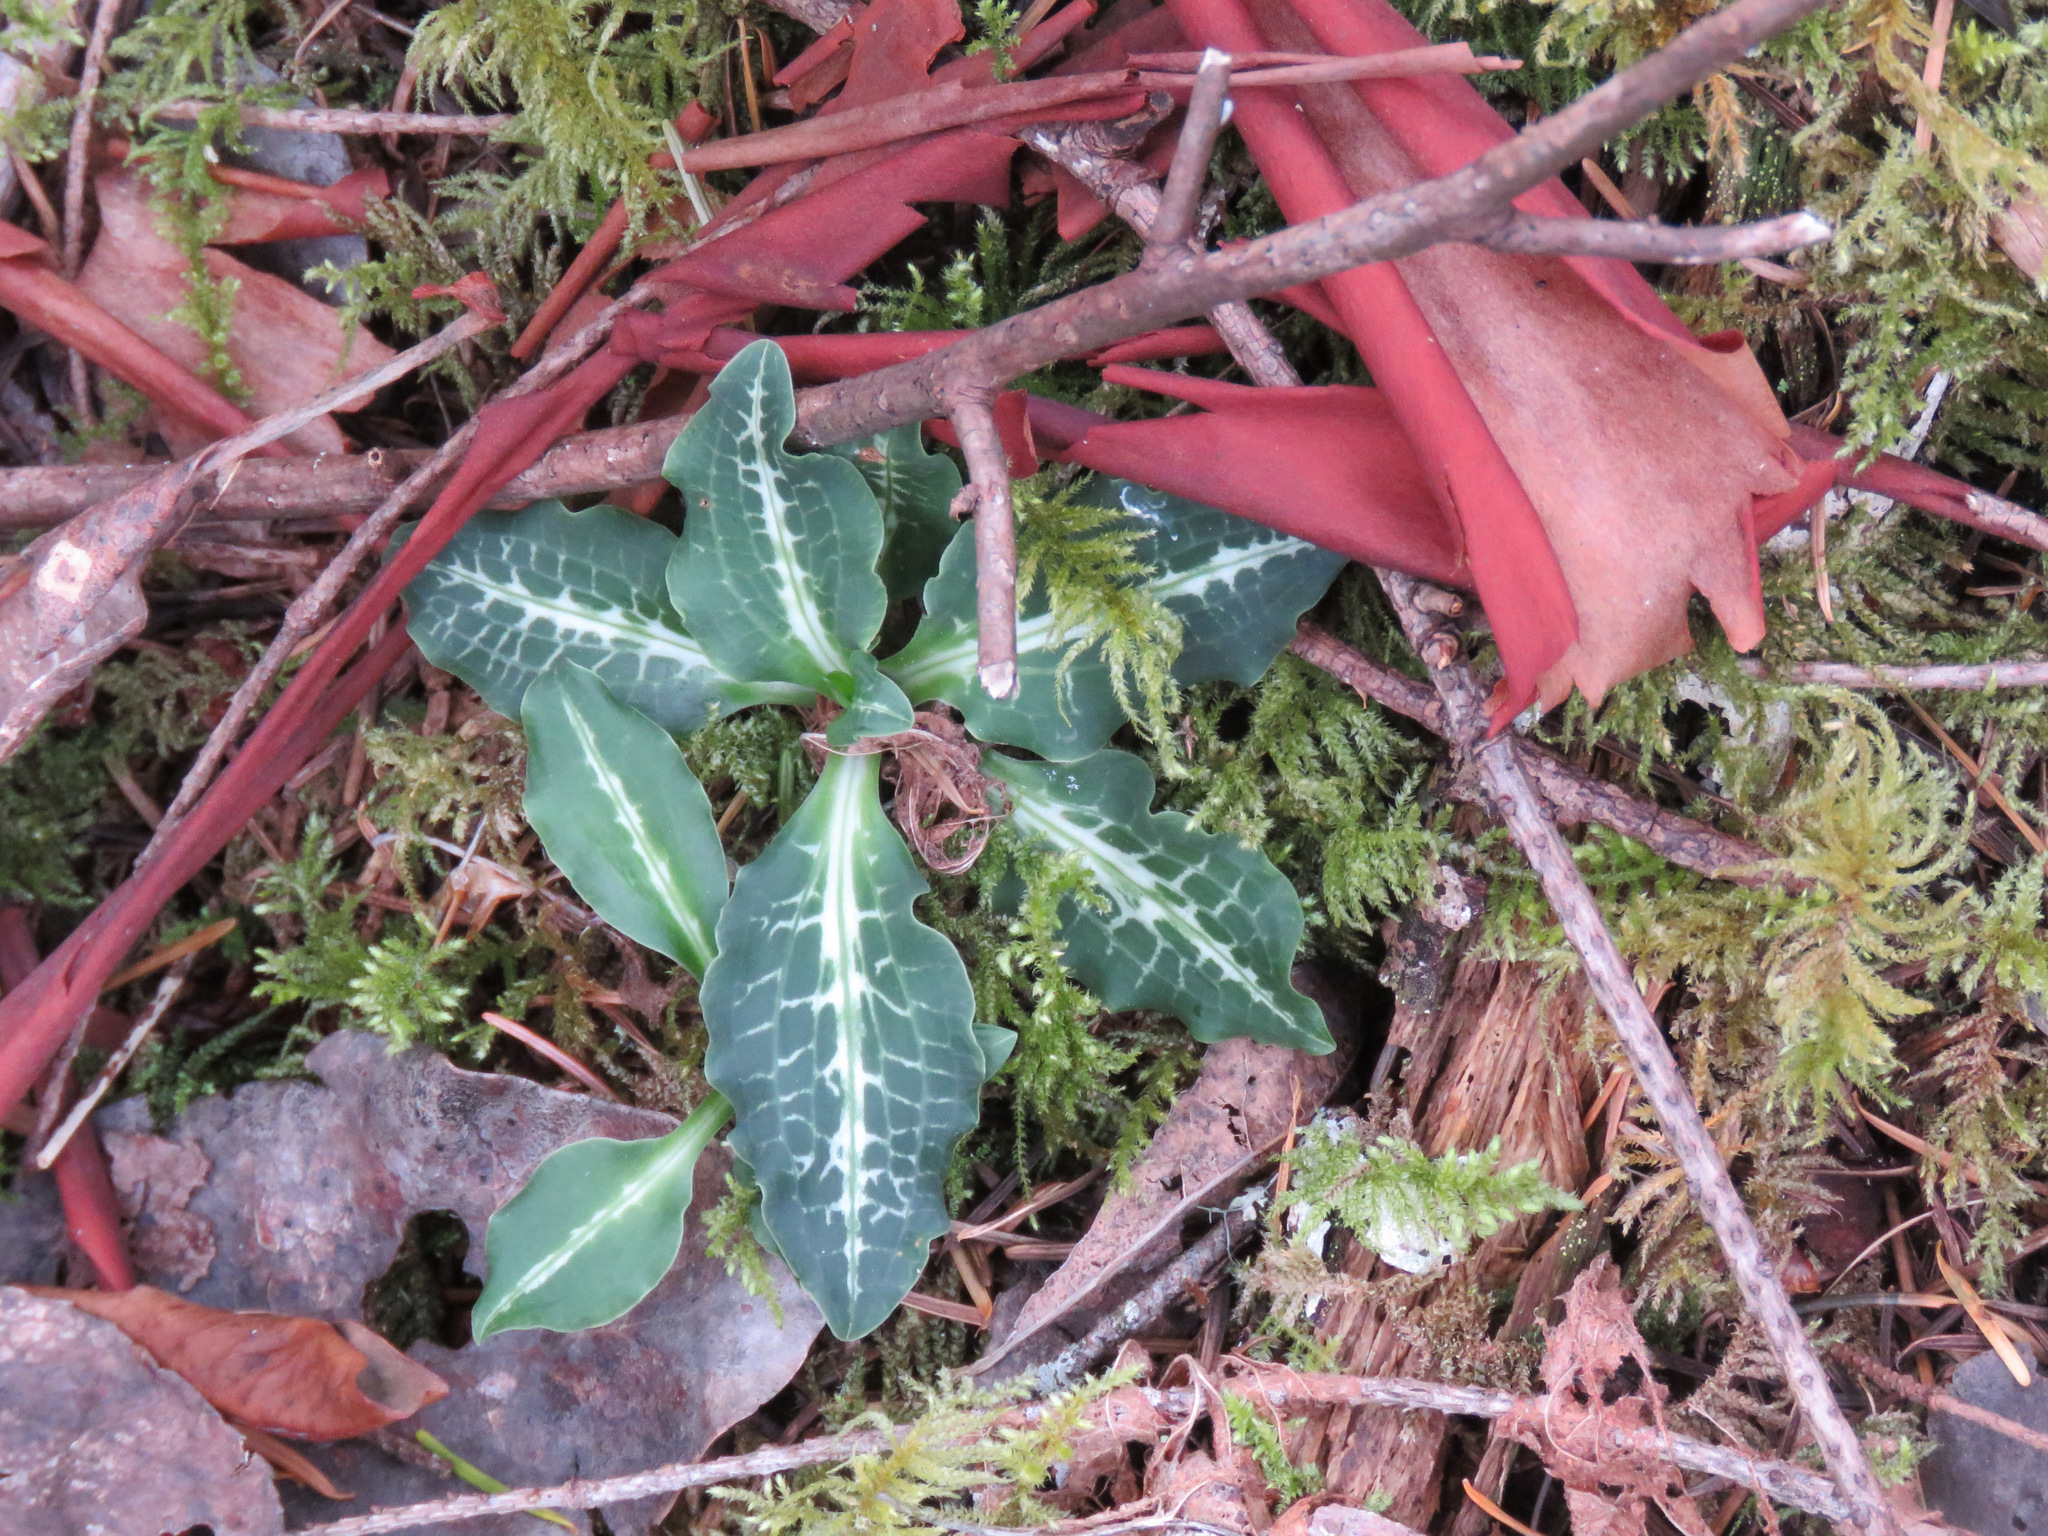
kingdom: Plantae
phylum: Tracheophyta
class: Liliopsida
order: Asparagales
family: Orchidaceae
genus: Goodyera
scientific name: Goodyera oblongifolia
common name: Giant rattlesnake-plantain
